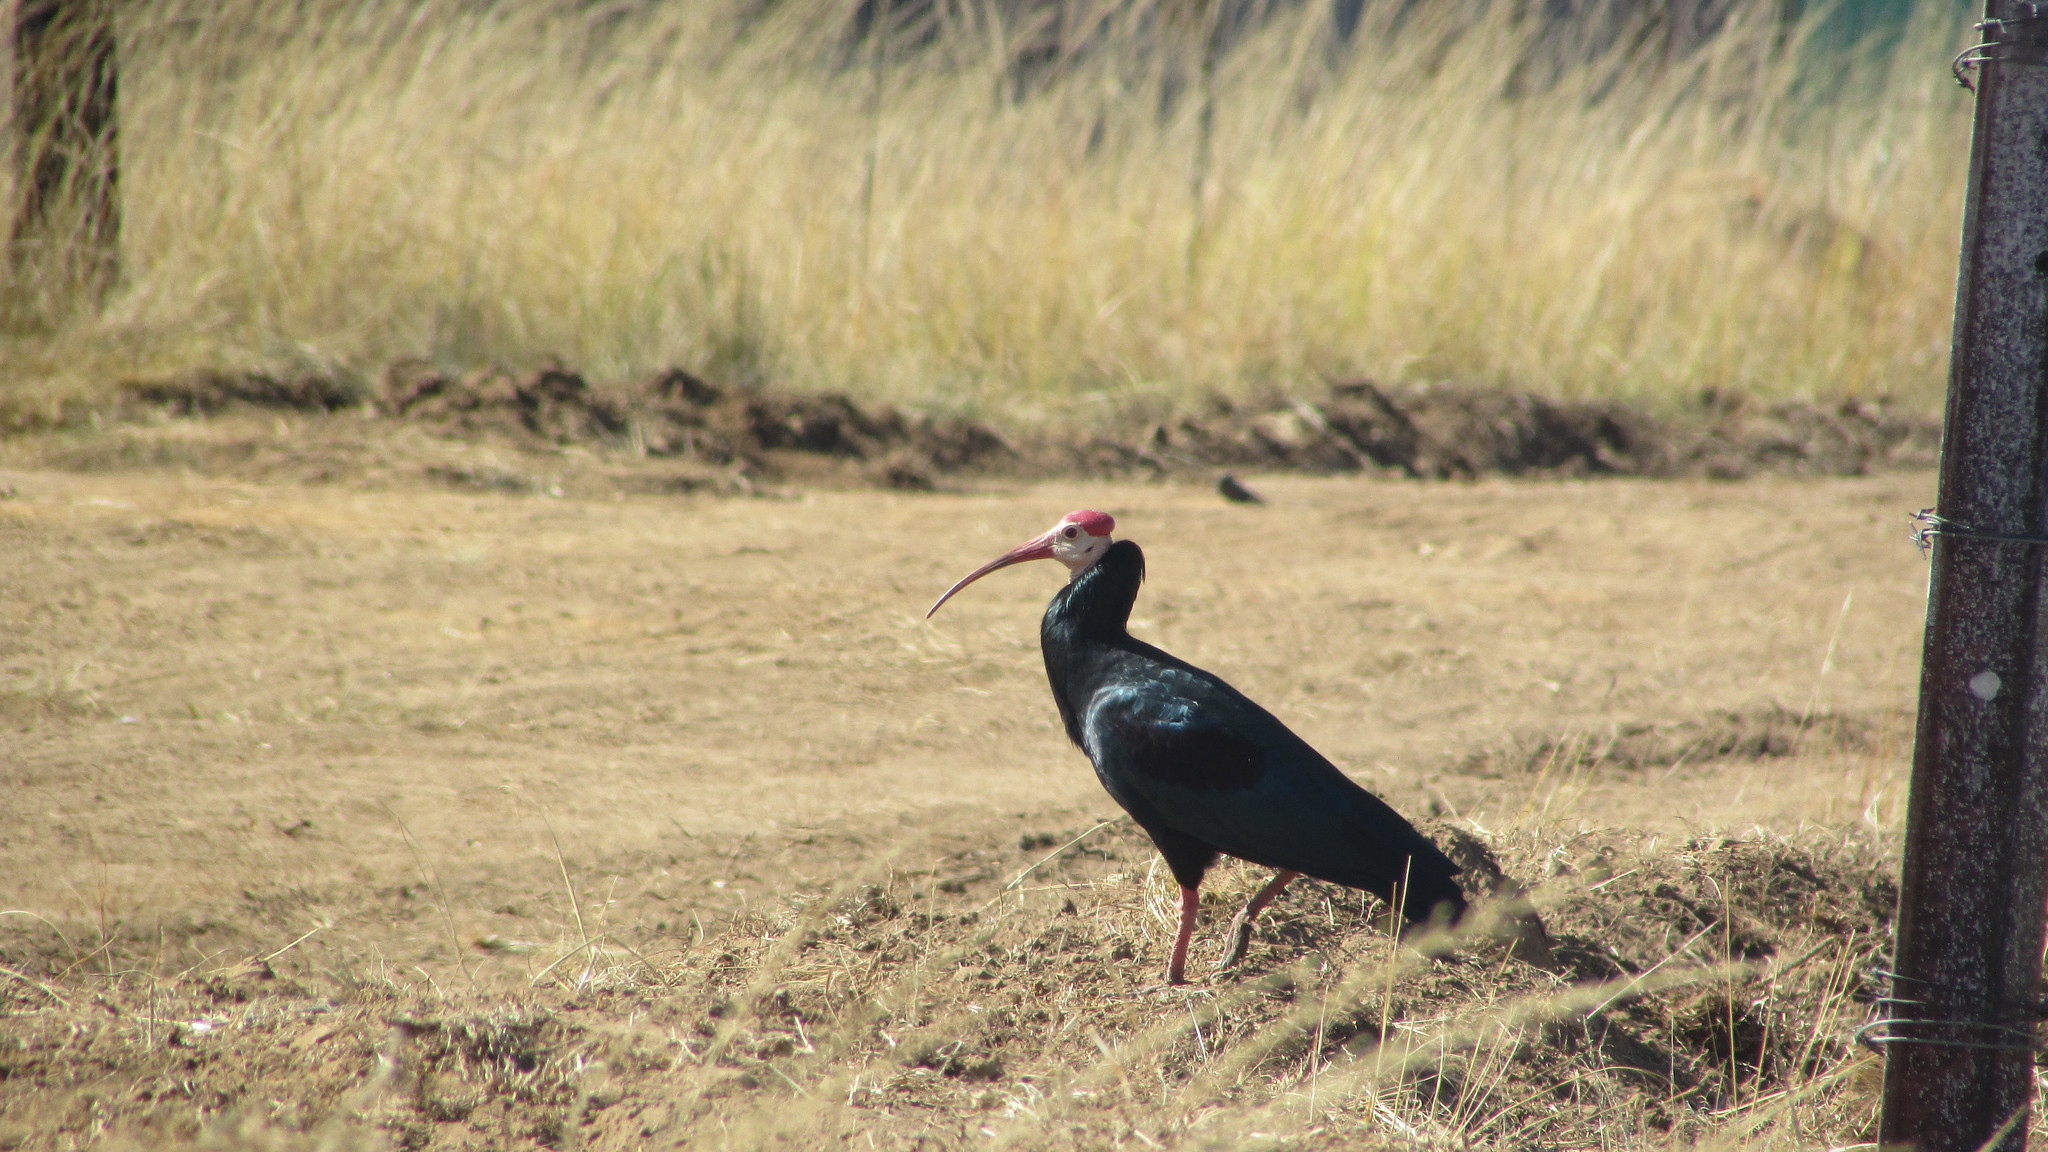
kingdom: Animalia
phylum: Chordata
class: Aves
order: Pelecaniformes
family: Threskiornithidae
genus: Geronticus
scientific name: Geronticus calvus
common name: Southern bald ibis
